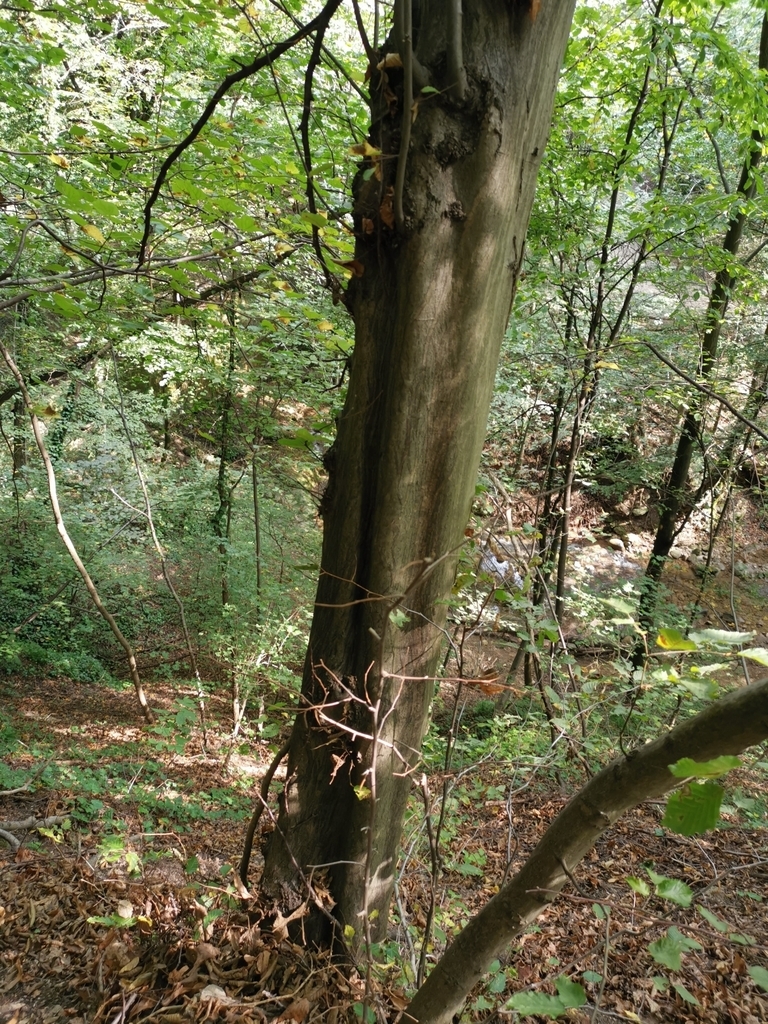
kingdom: Plantae
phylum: Tracheophyta
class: Magnoliopsida
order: Fagales
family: Betulaceae
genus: Carpinus
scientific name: Carpinus betulus
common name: Hornbeam
